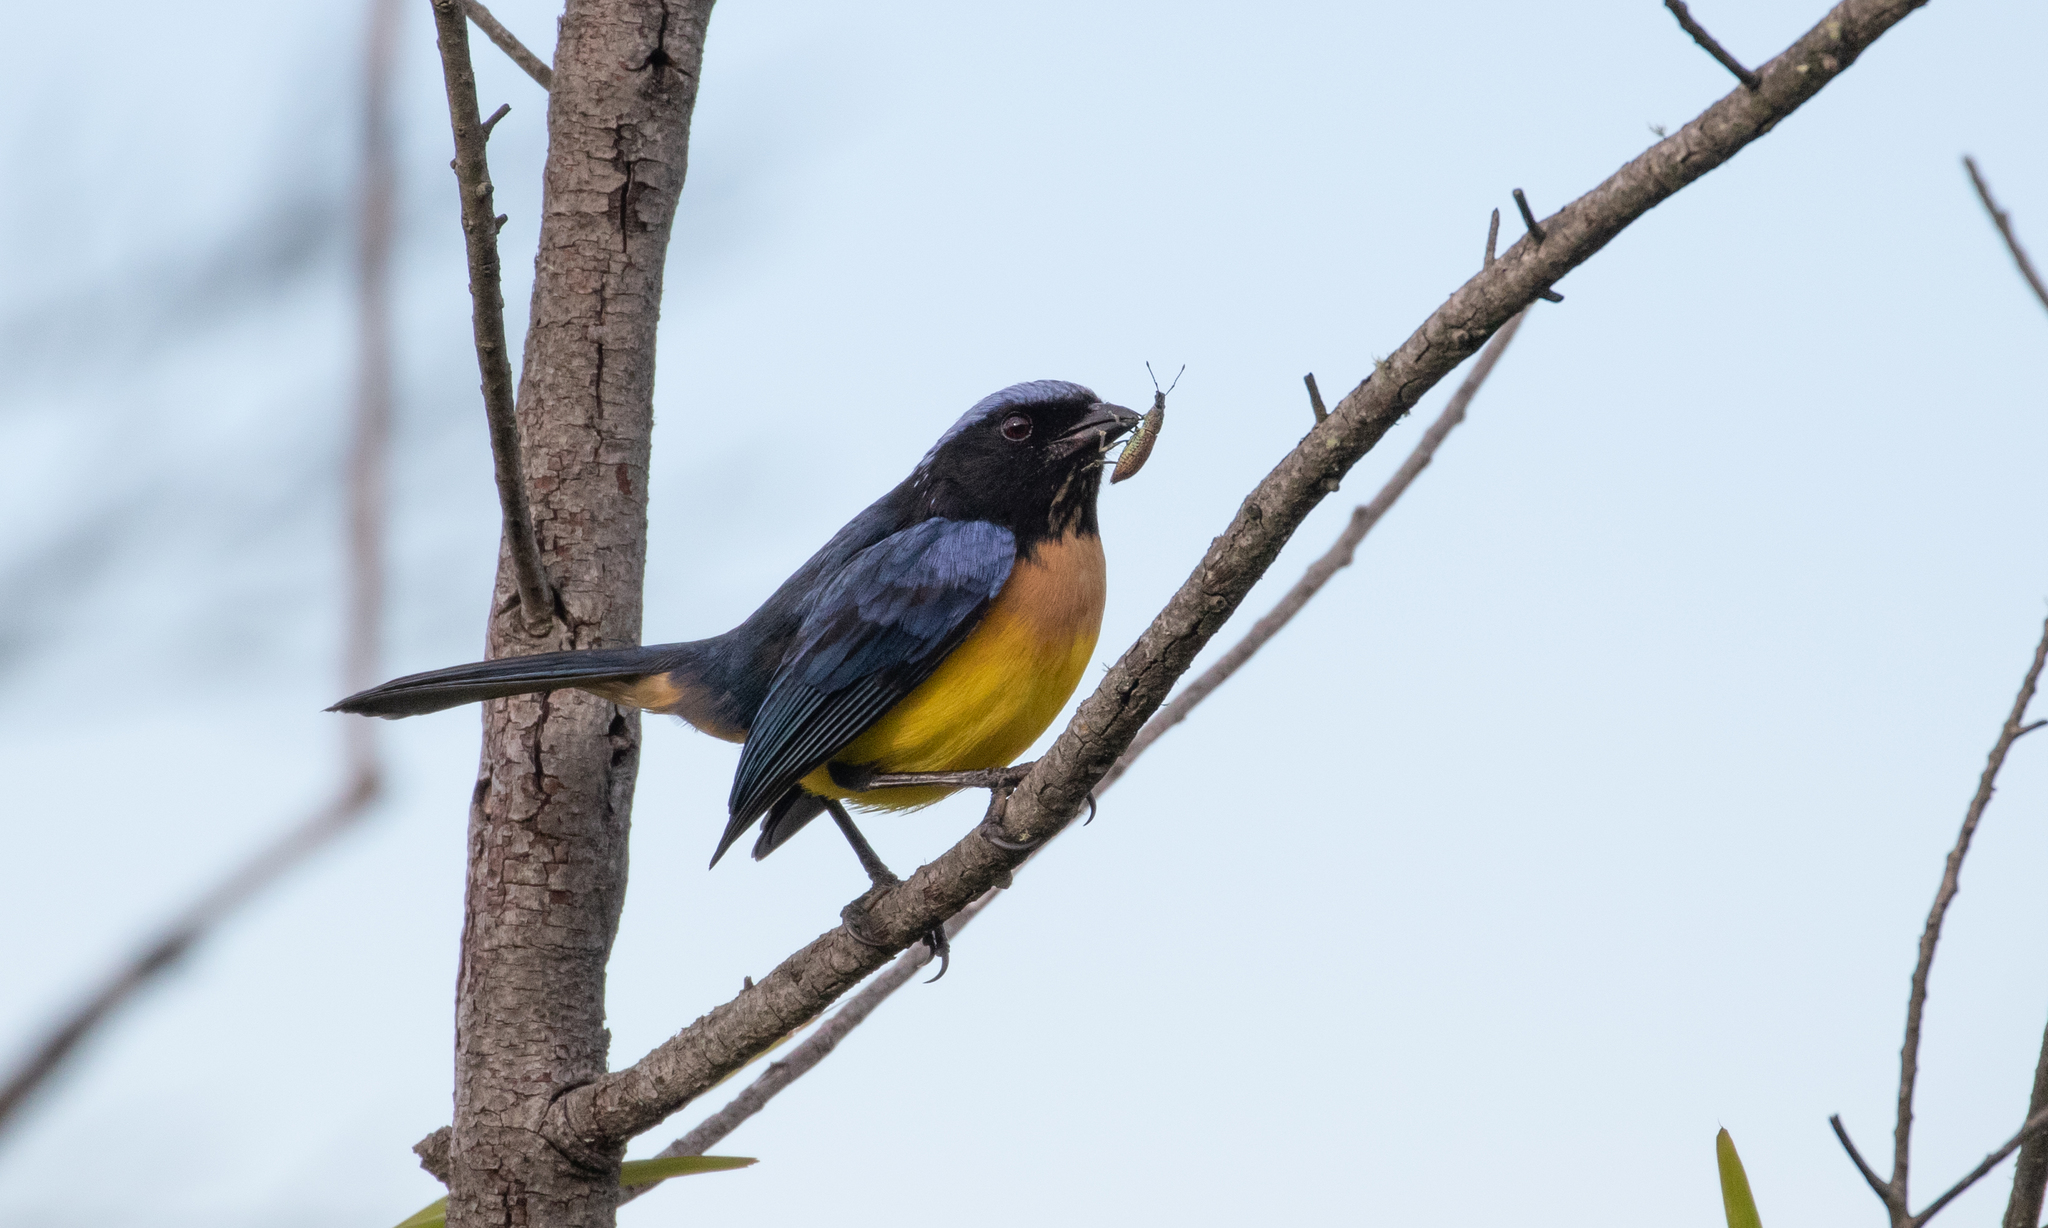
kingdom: Animalia
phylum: Chordata
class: Aves
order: Passeriformes
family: Thraupidae
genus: Dubusia
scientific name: Dubusia taeniata
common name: Buff-breasted mountain tanager
